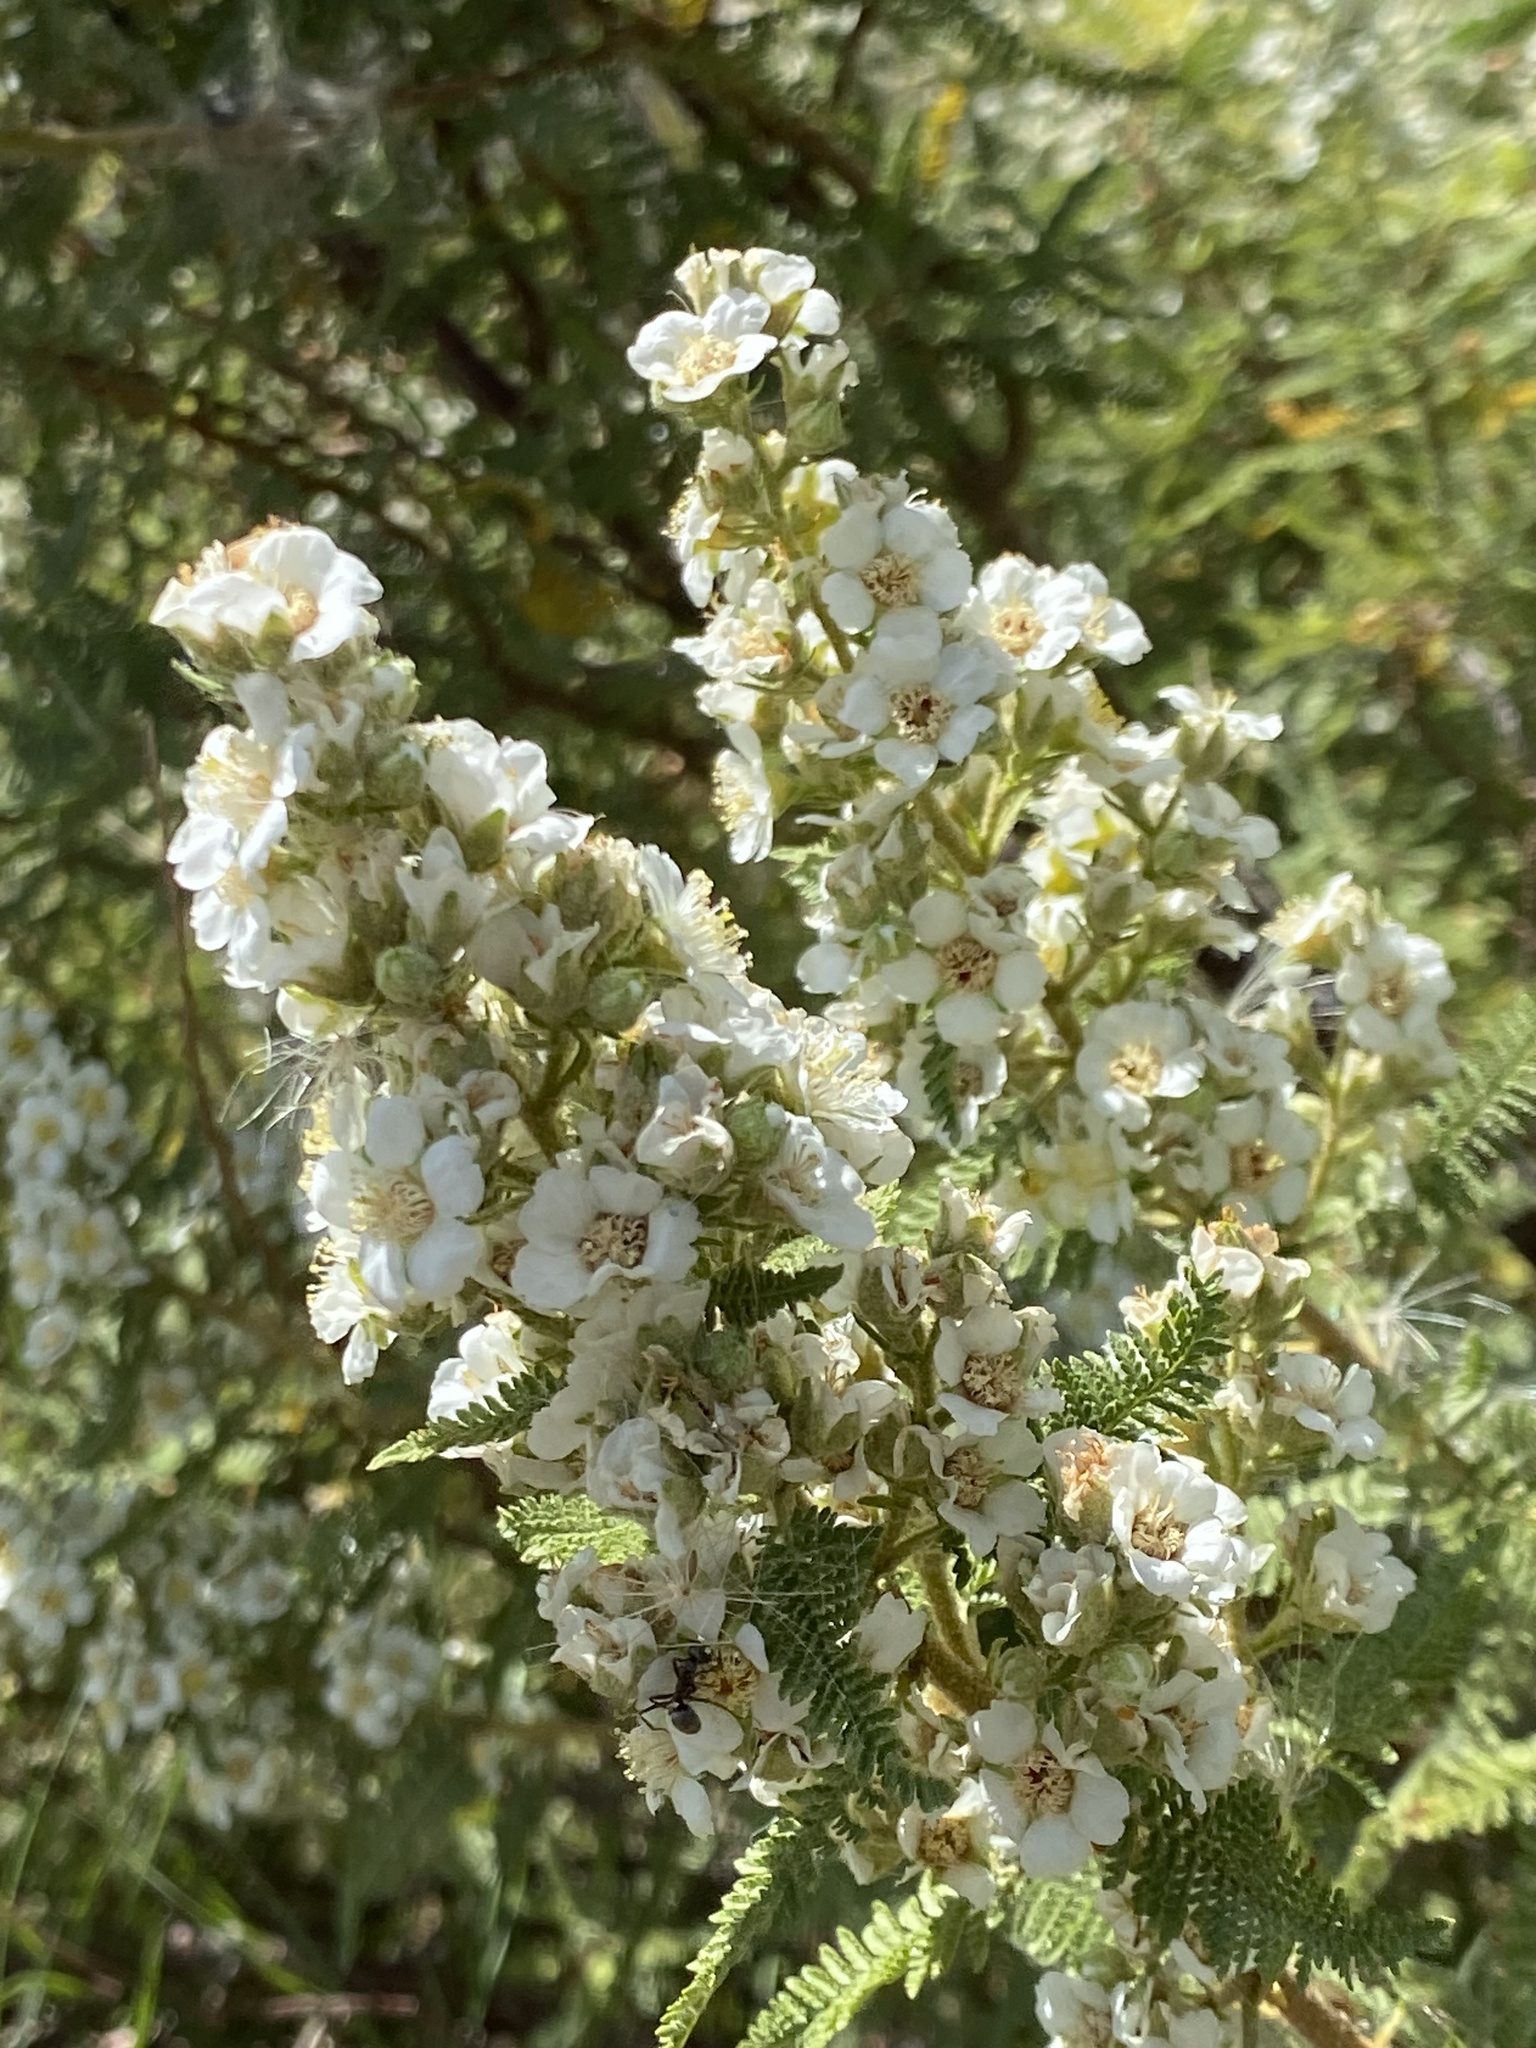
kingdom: Plantae
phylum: Tracheophyta
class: Magnoliopsida
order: Rosales
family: Rosaceae
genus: Chamaebatiaria
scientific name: Chamaebatiaria millefolium
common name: Fernbush
